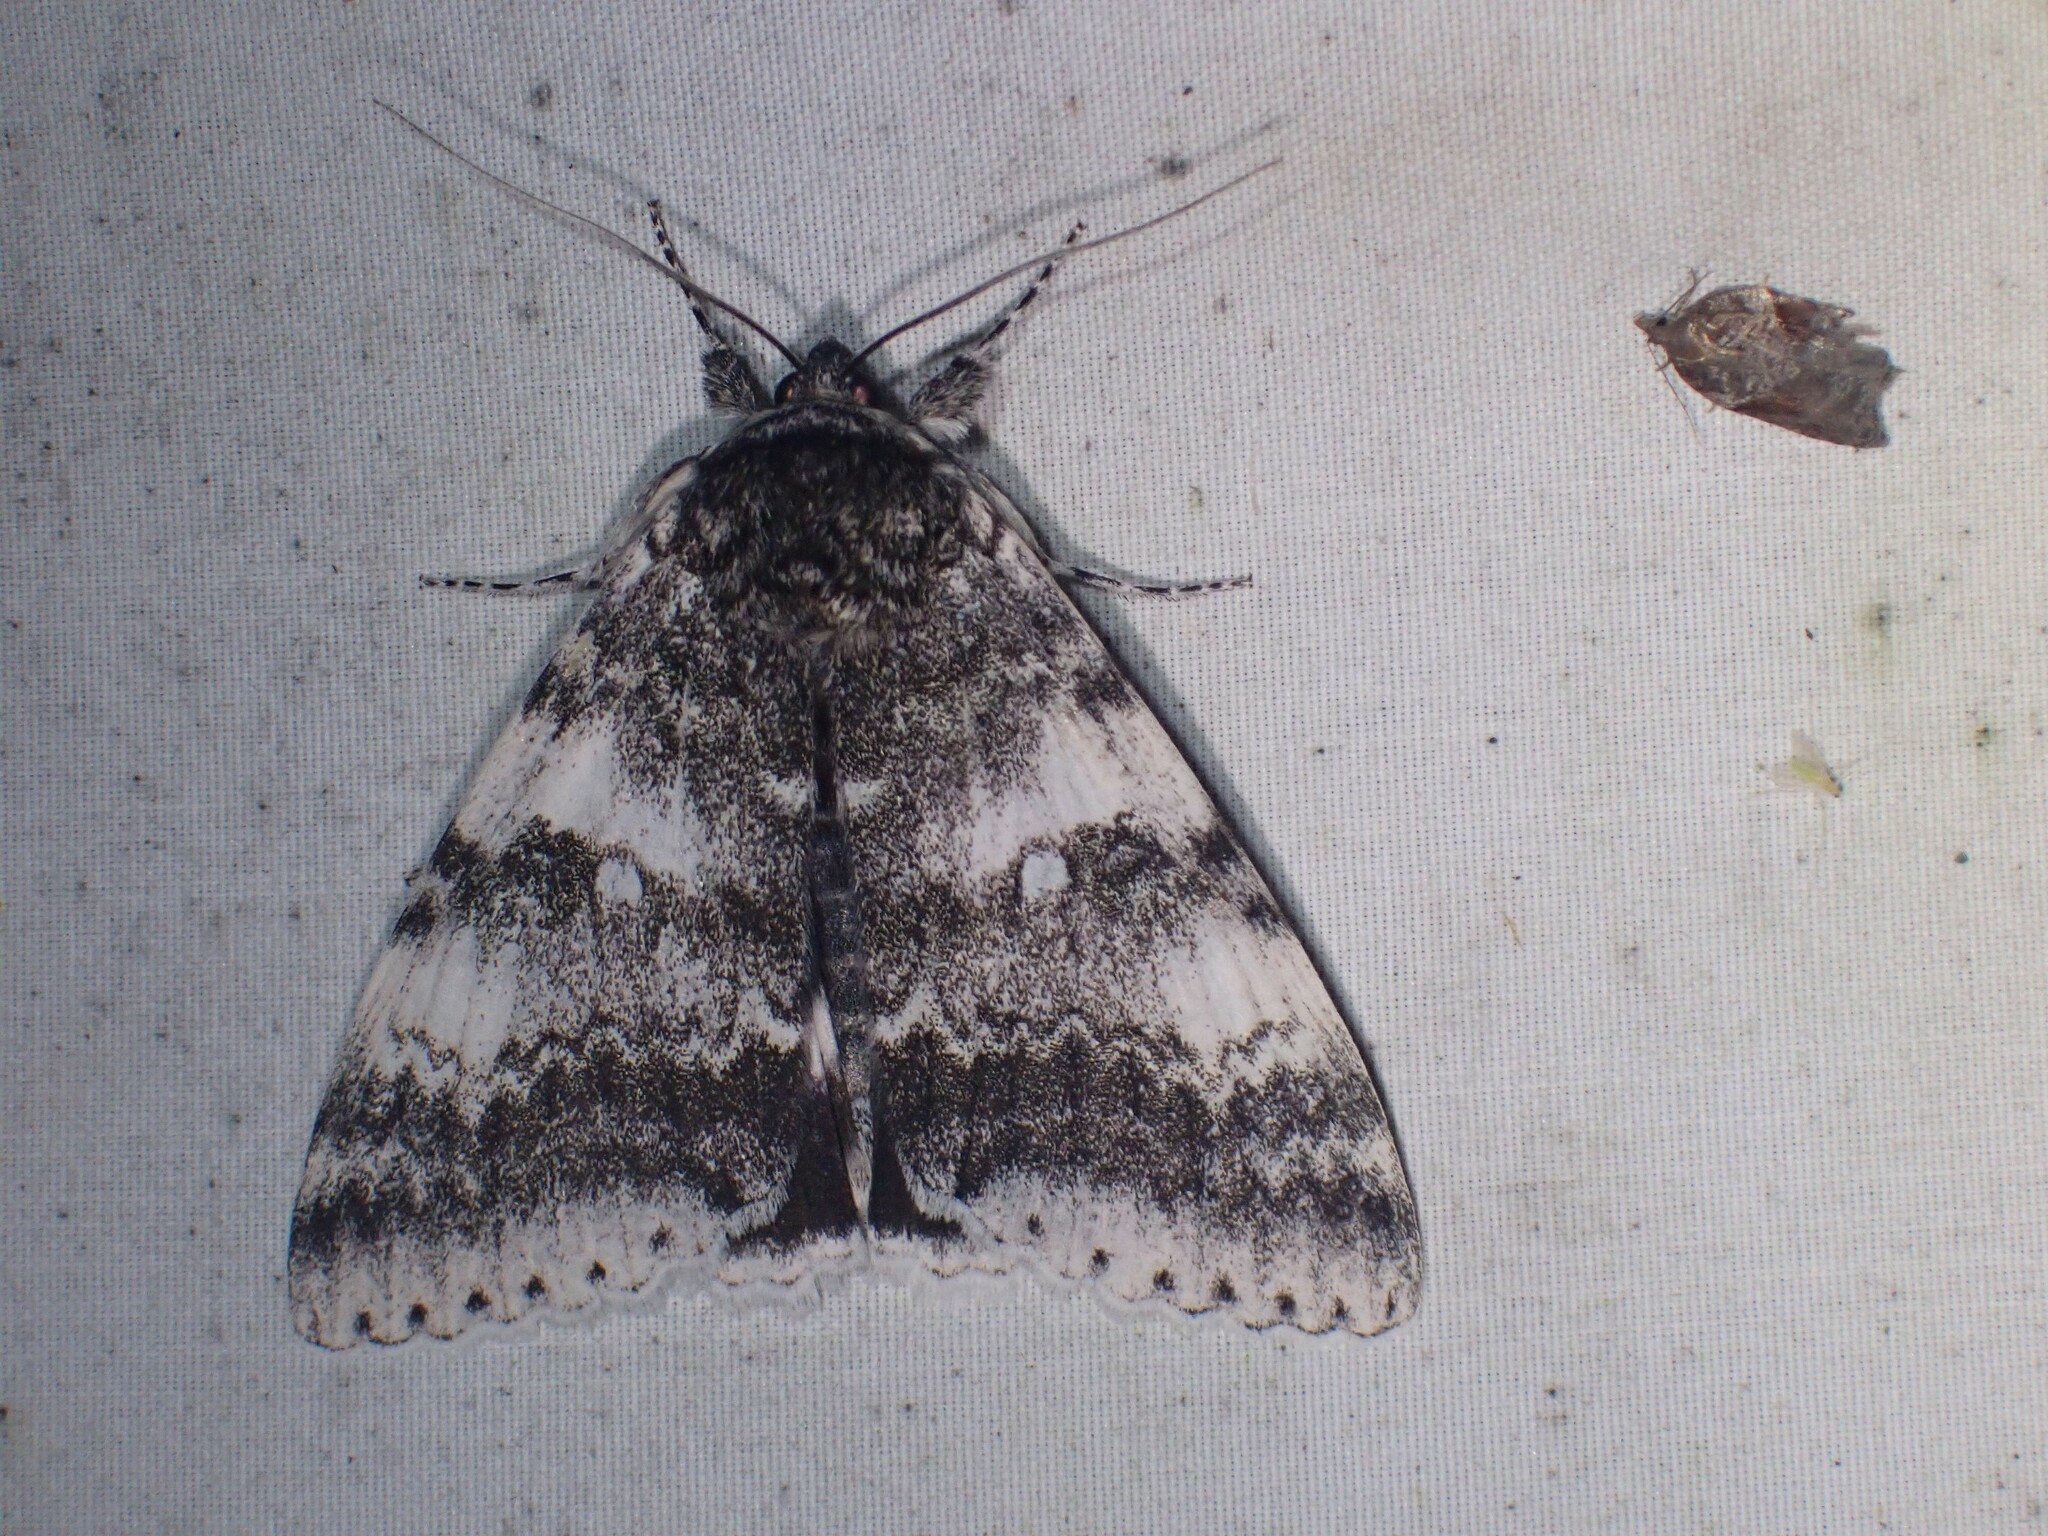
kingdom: Animalia
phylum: Arthropoda
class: Insecta
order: Lepidoptera
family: Erebidae
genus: Catocala
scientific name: Catocala relicta
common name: White underwing
